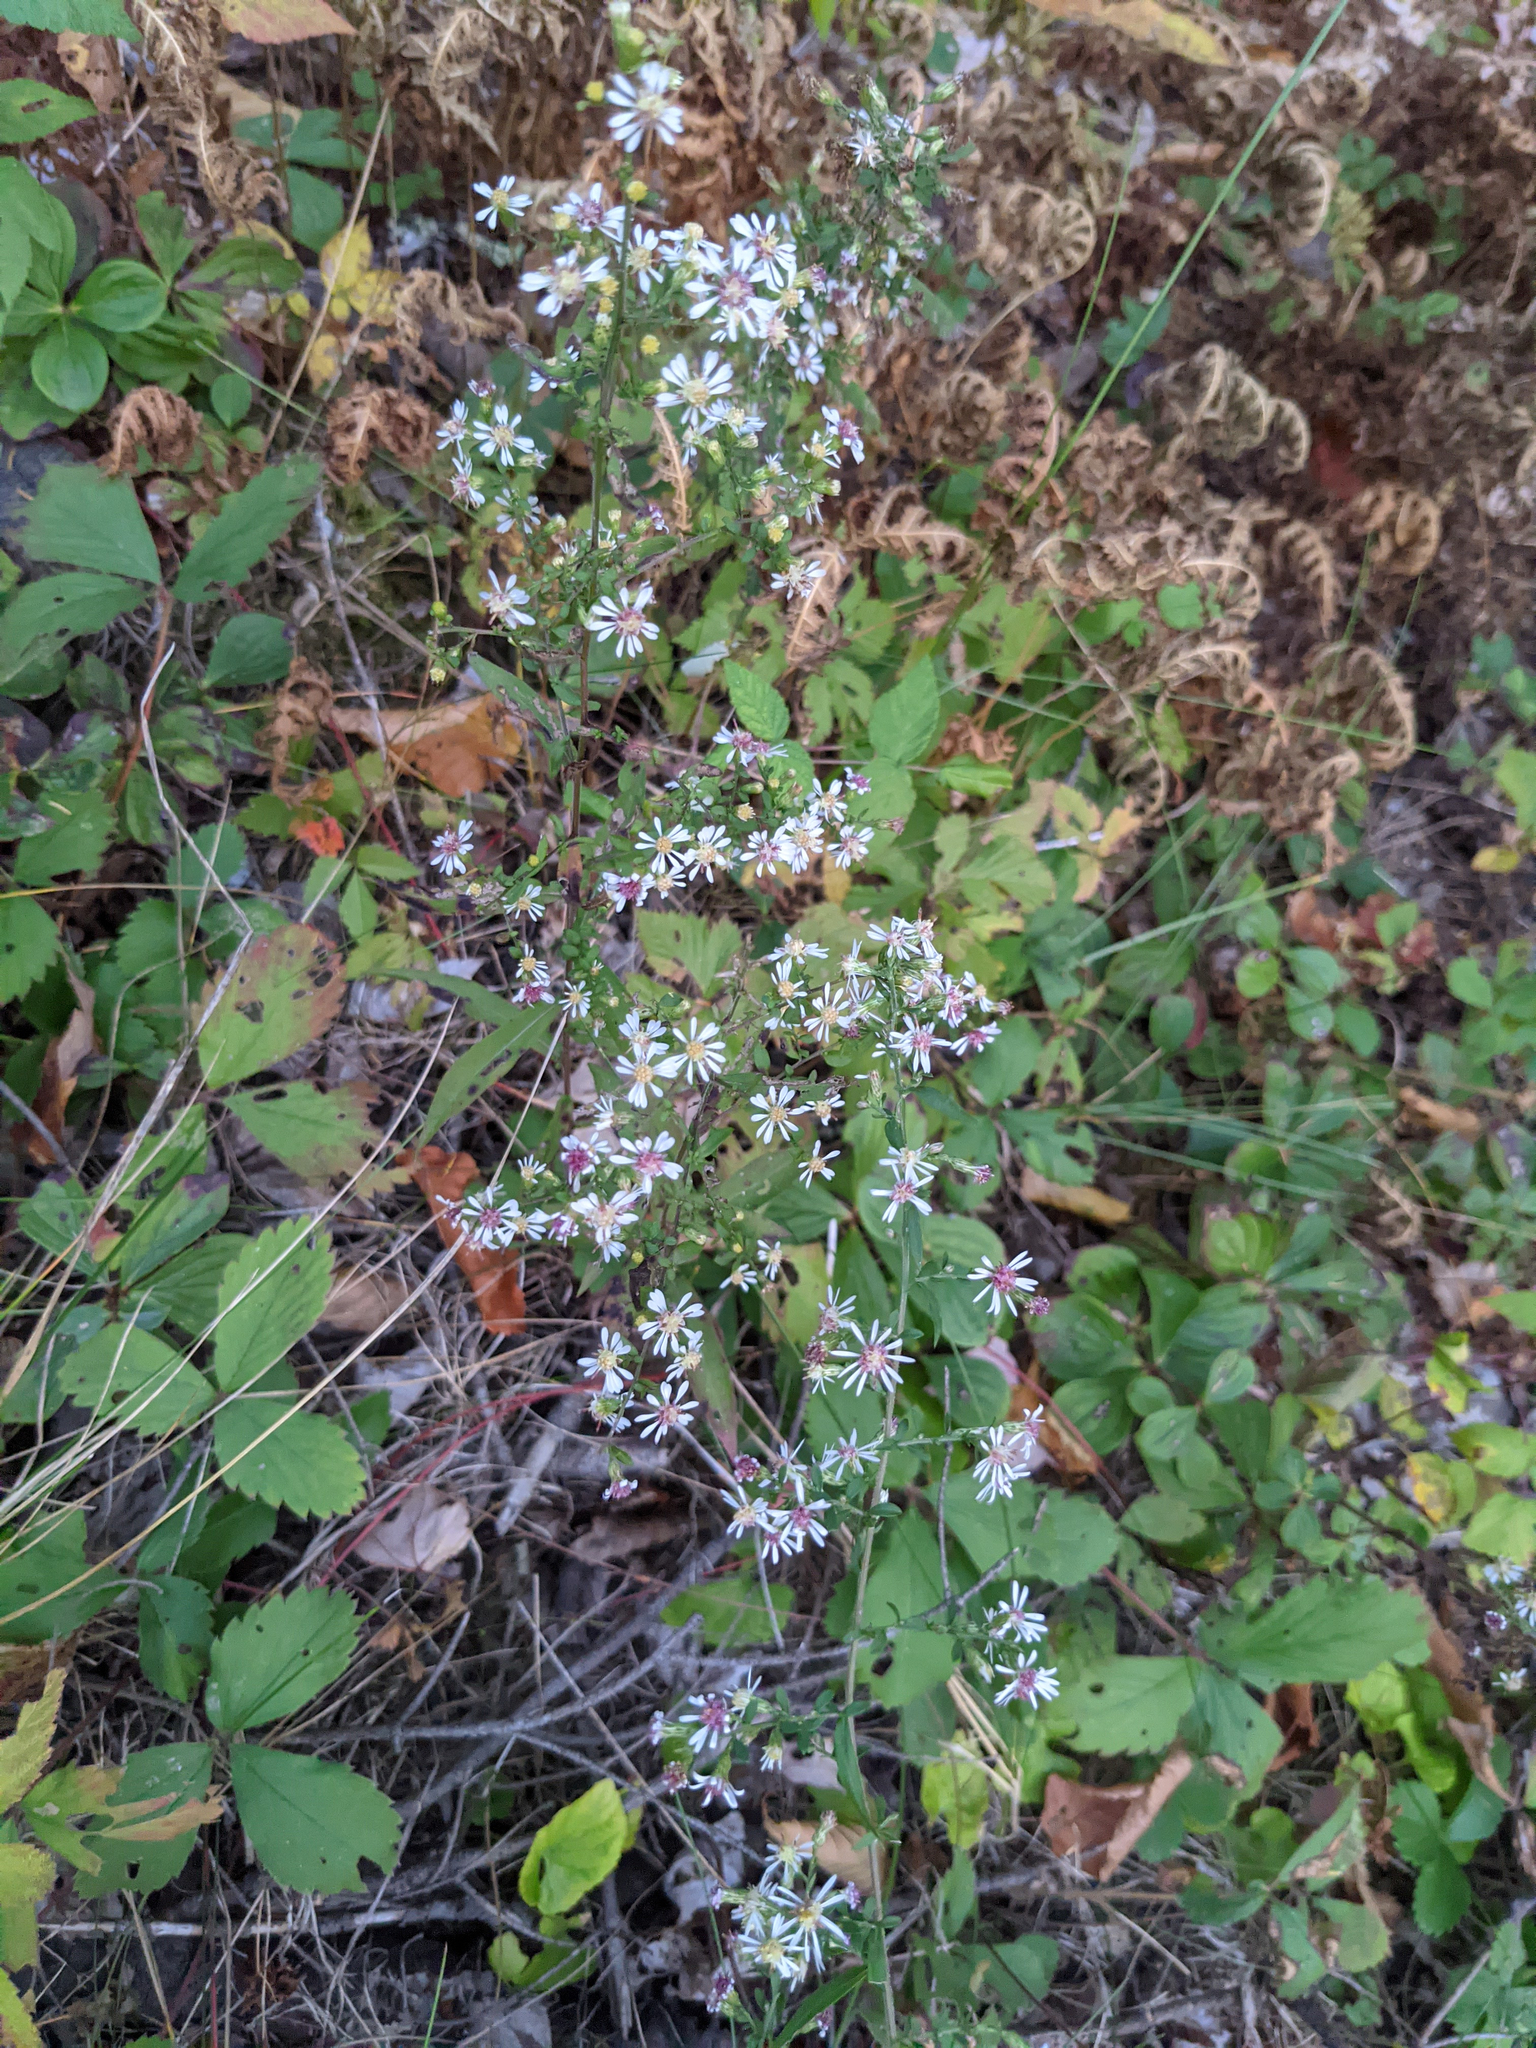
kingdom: Plantae
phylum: Tracheophyta
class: Magnoliopsida
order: Asterales
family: Asteraceae
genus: Symphyotrichum
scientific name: Symphyotrichum lateriflorum
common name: Calico aster
